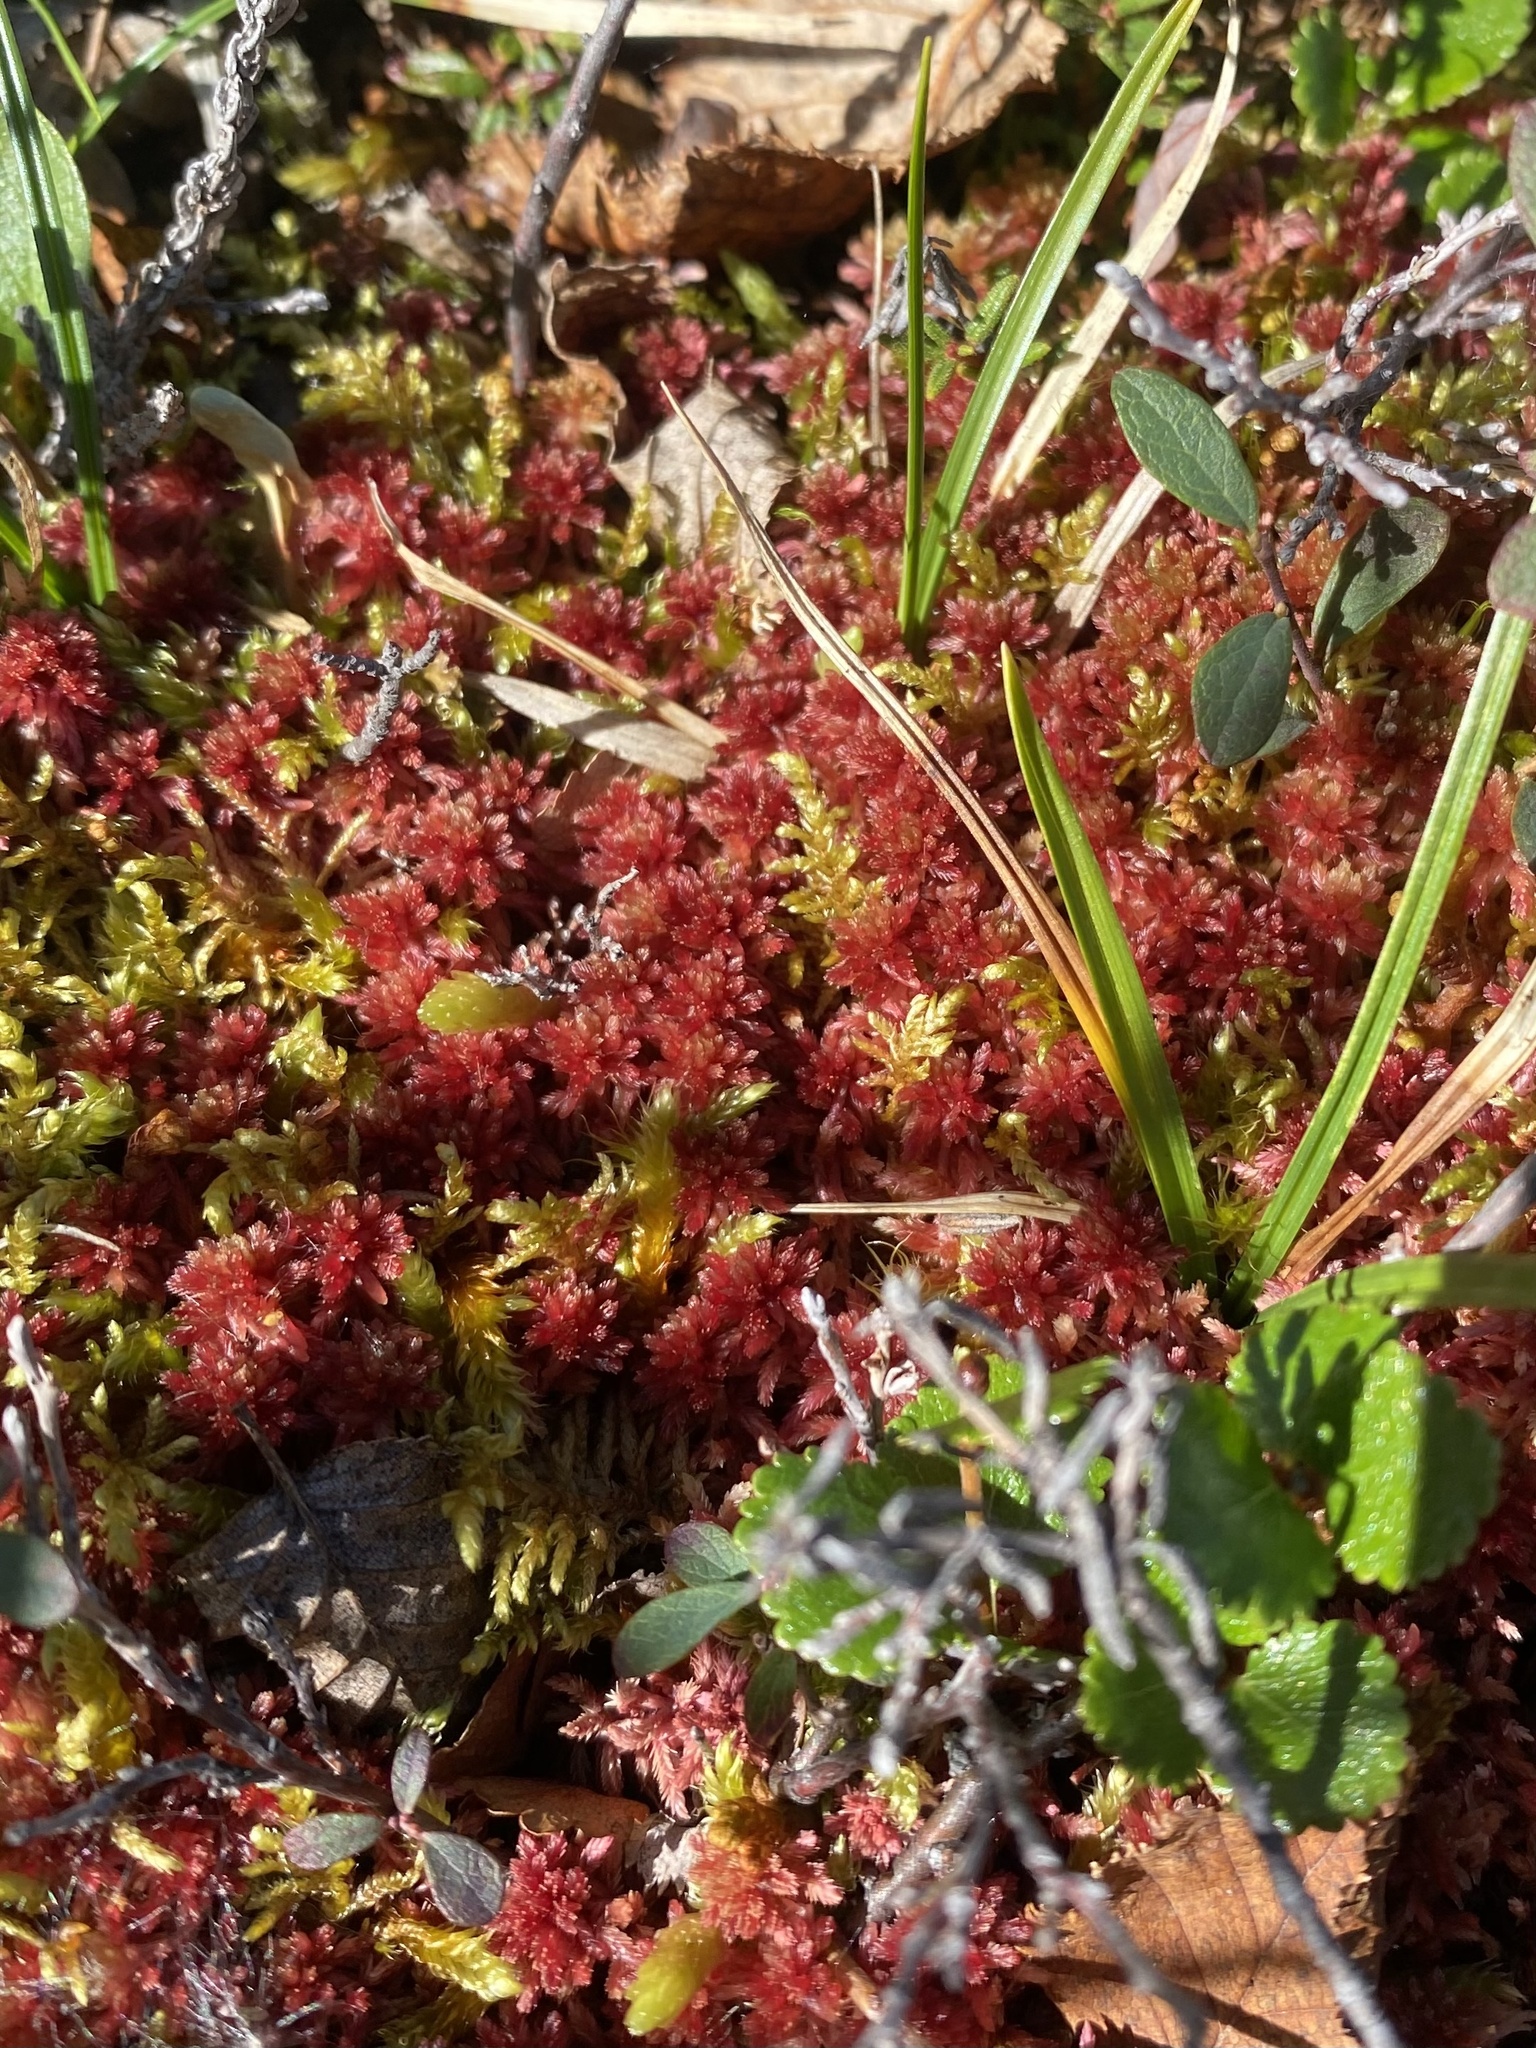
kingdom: Plantae
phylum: Bryophyta
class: Sphagnopsida
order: Sphagnales
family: Sphagnaceae
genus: Sphagnum
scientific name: Sphagnum
